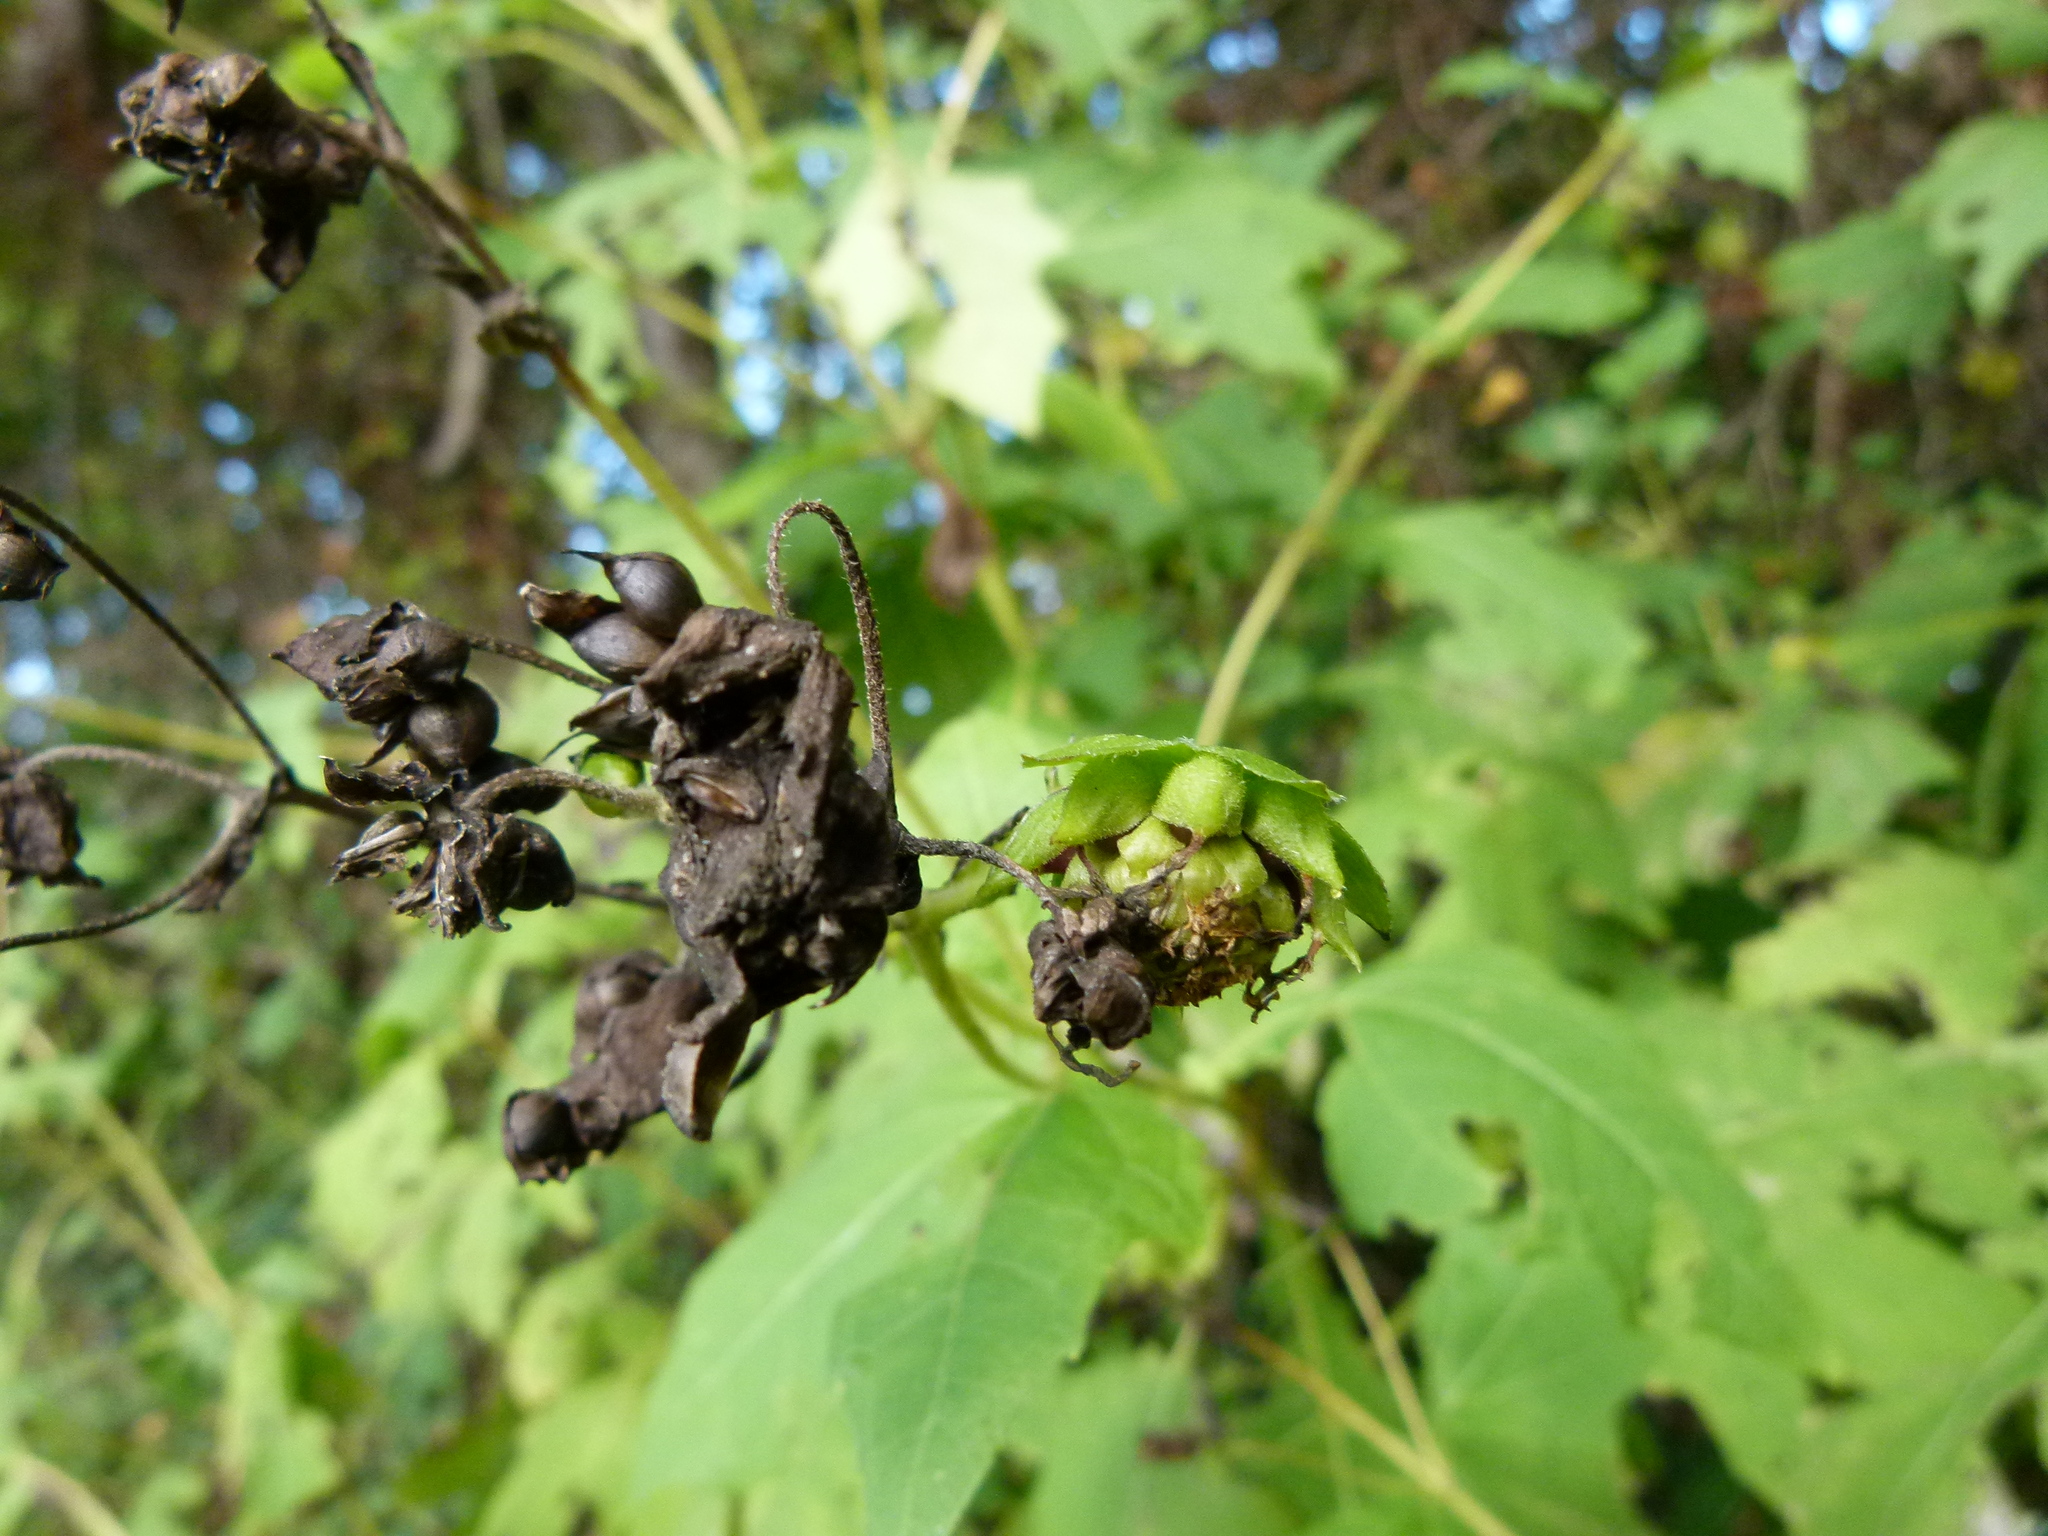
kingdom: Plantae
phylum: Tracheophyta
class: Magnoliopsida
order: Asterales
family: Asteraceae
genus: Smallanthus
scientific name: Smallanthus uvedalia
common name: Bear's-foot
